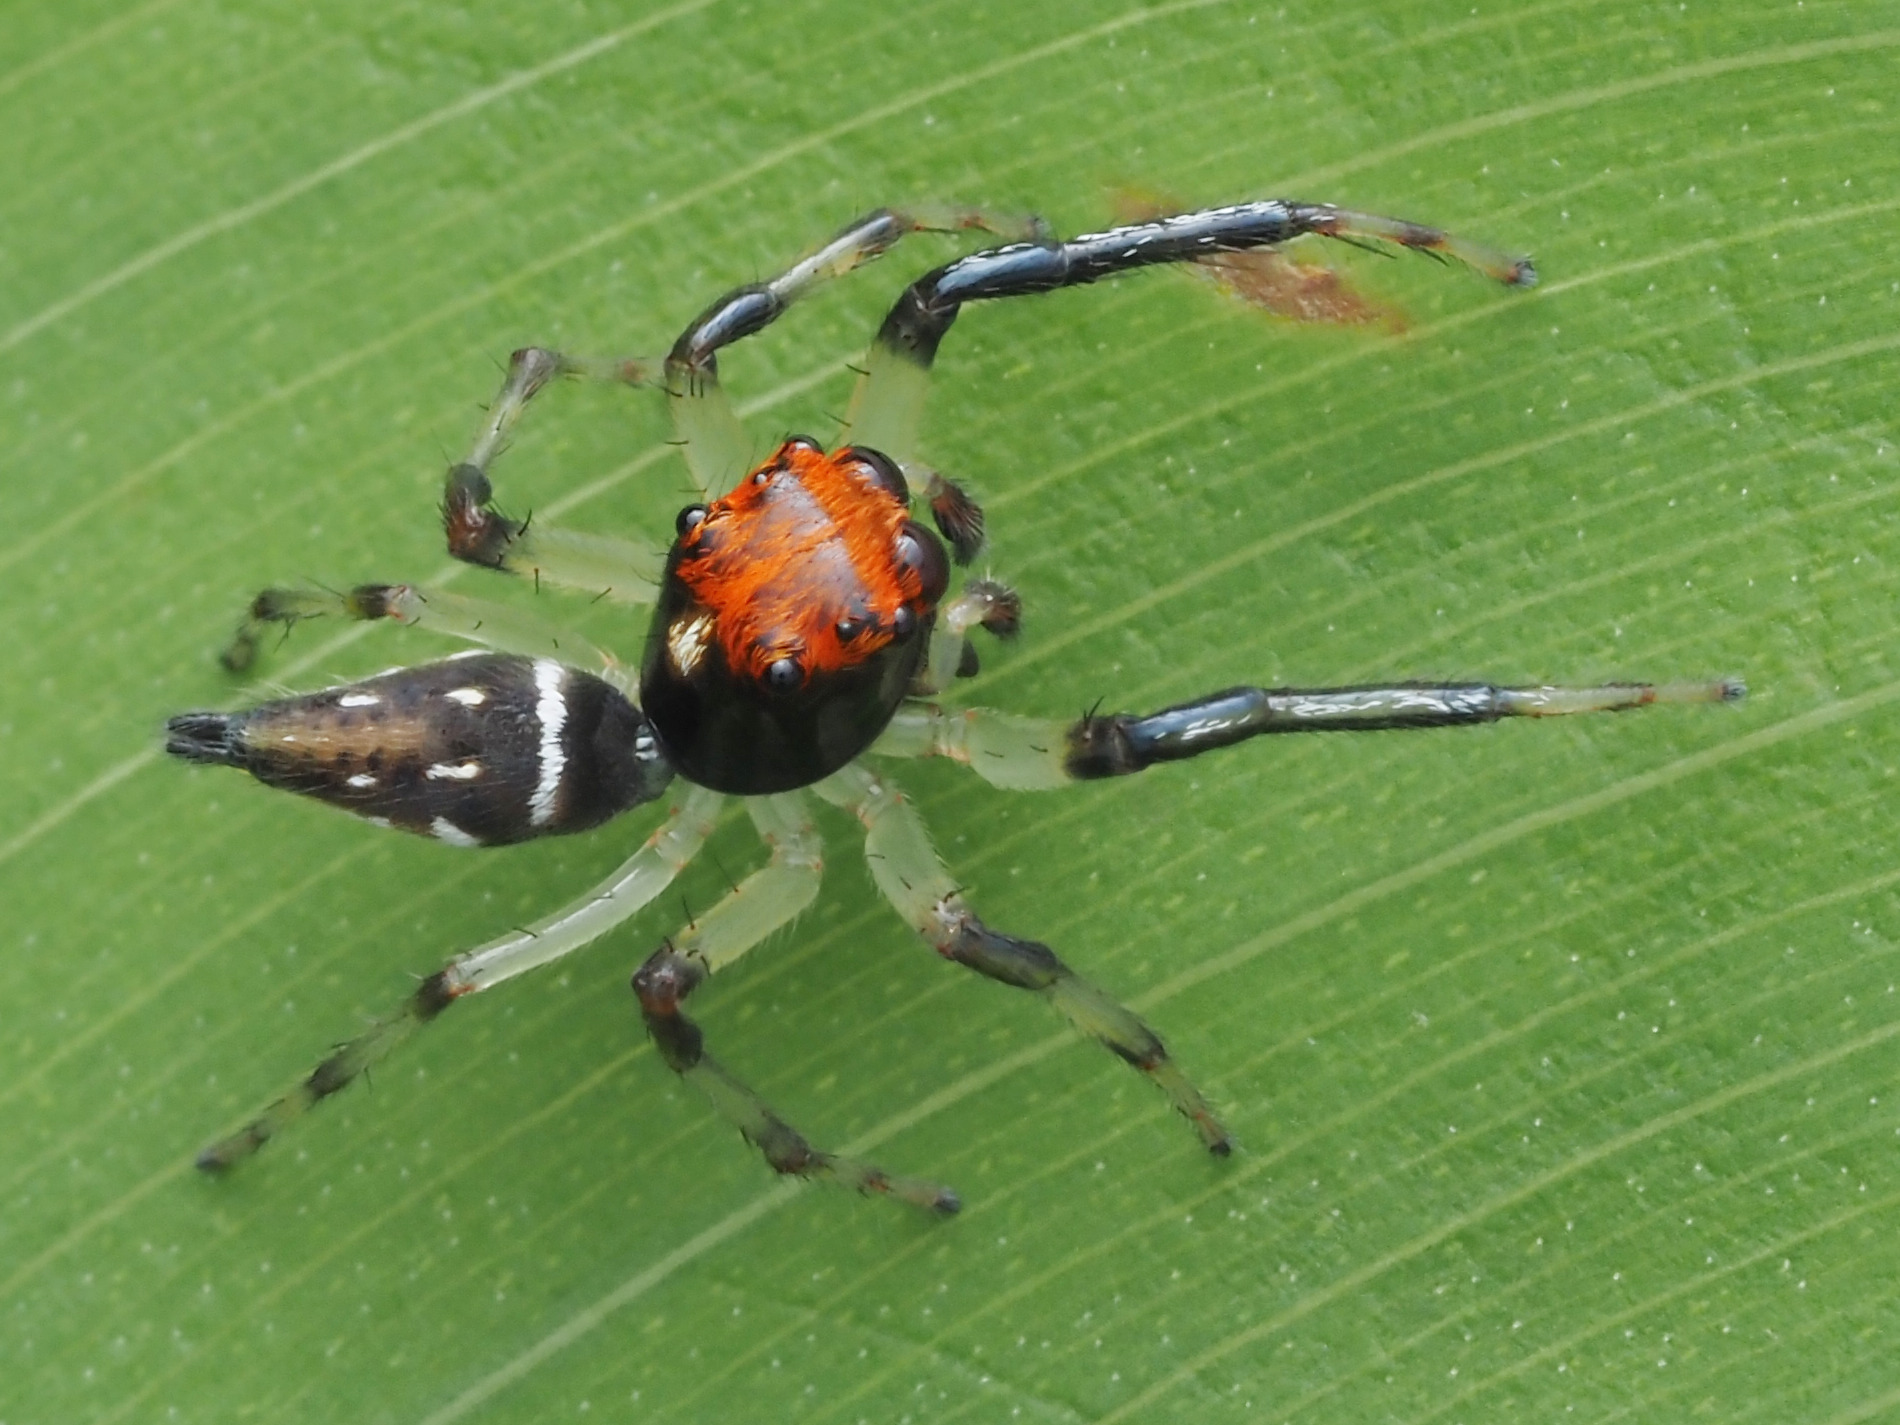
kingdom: Animalia
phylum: Arthropoda
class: Arachnida
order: Araneae
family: Salticidae
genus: Hypaeus
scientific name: Hypaeus benignus
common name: Jumping spiders
